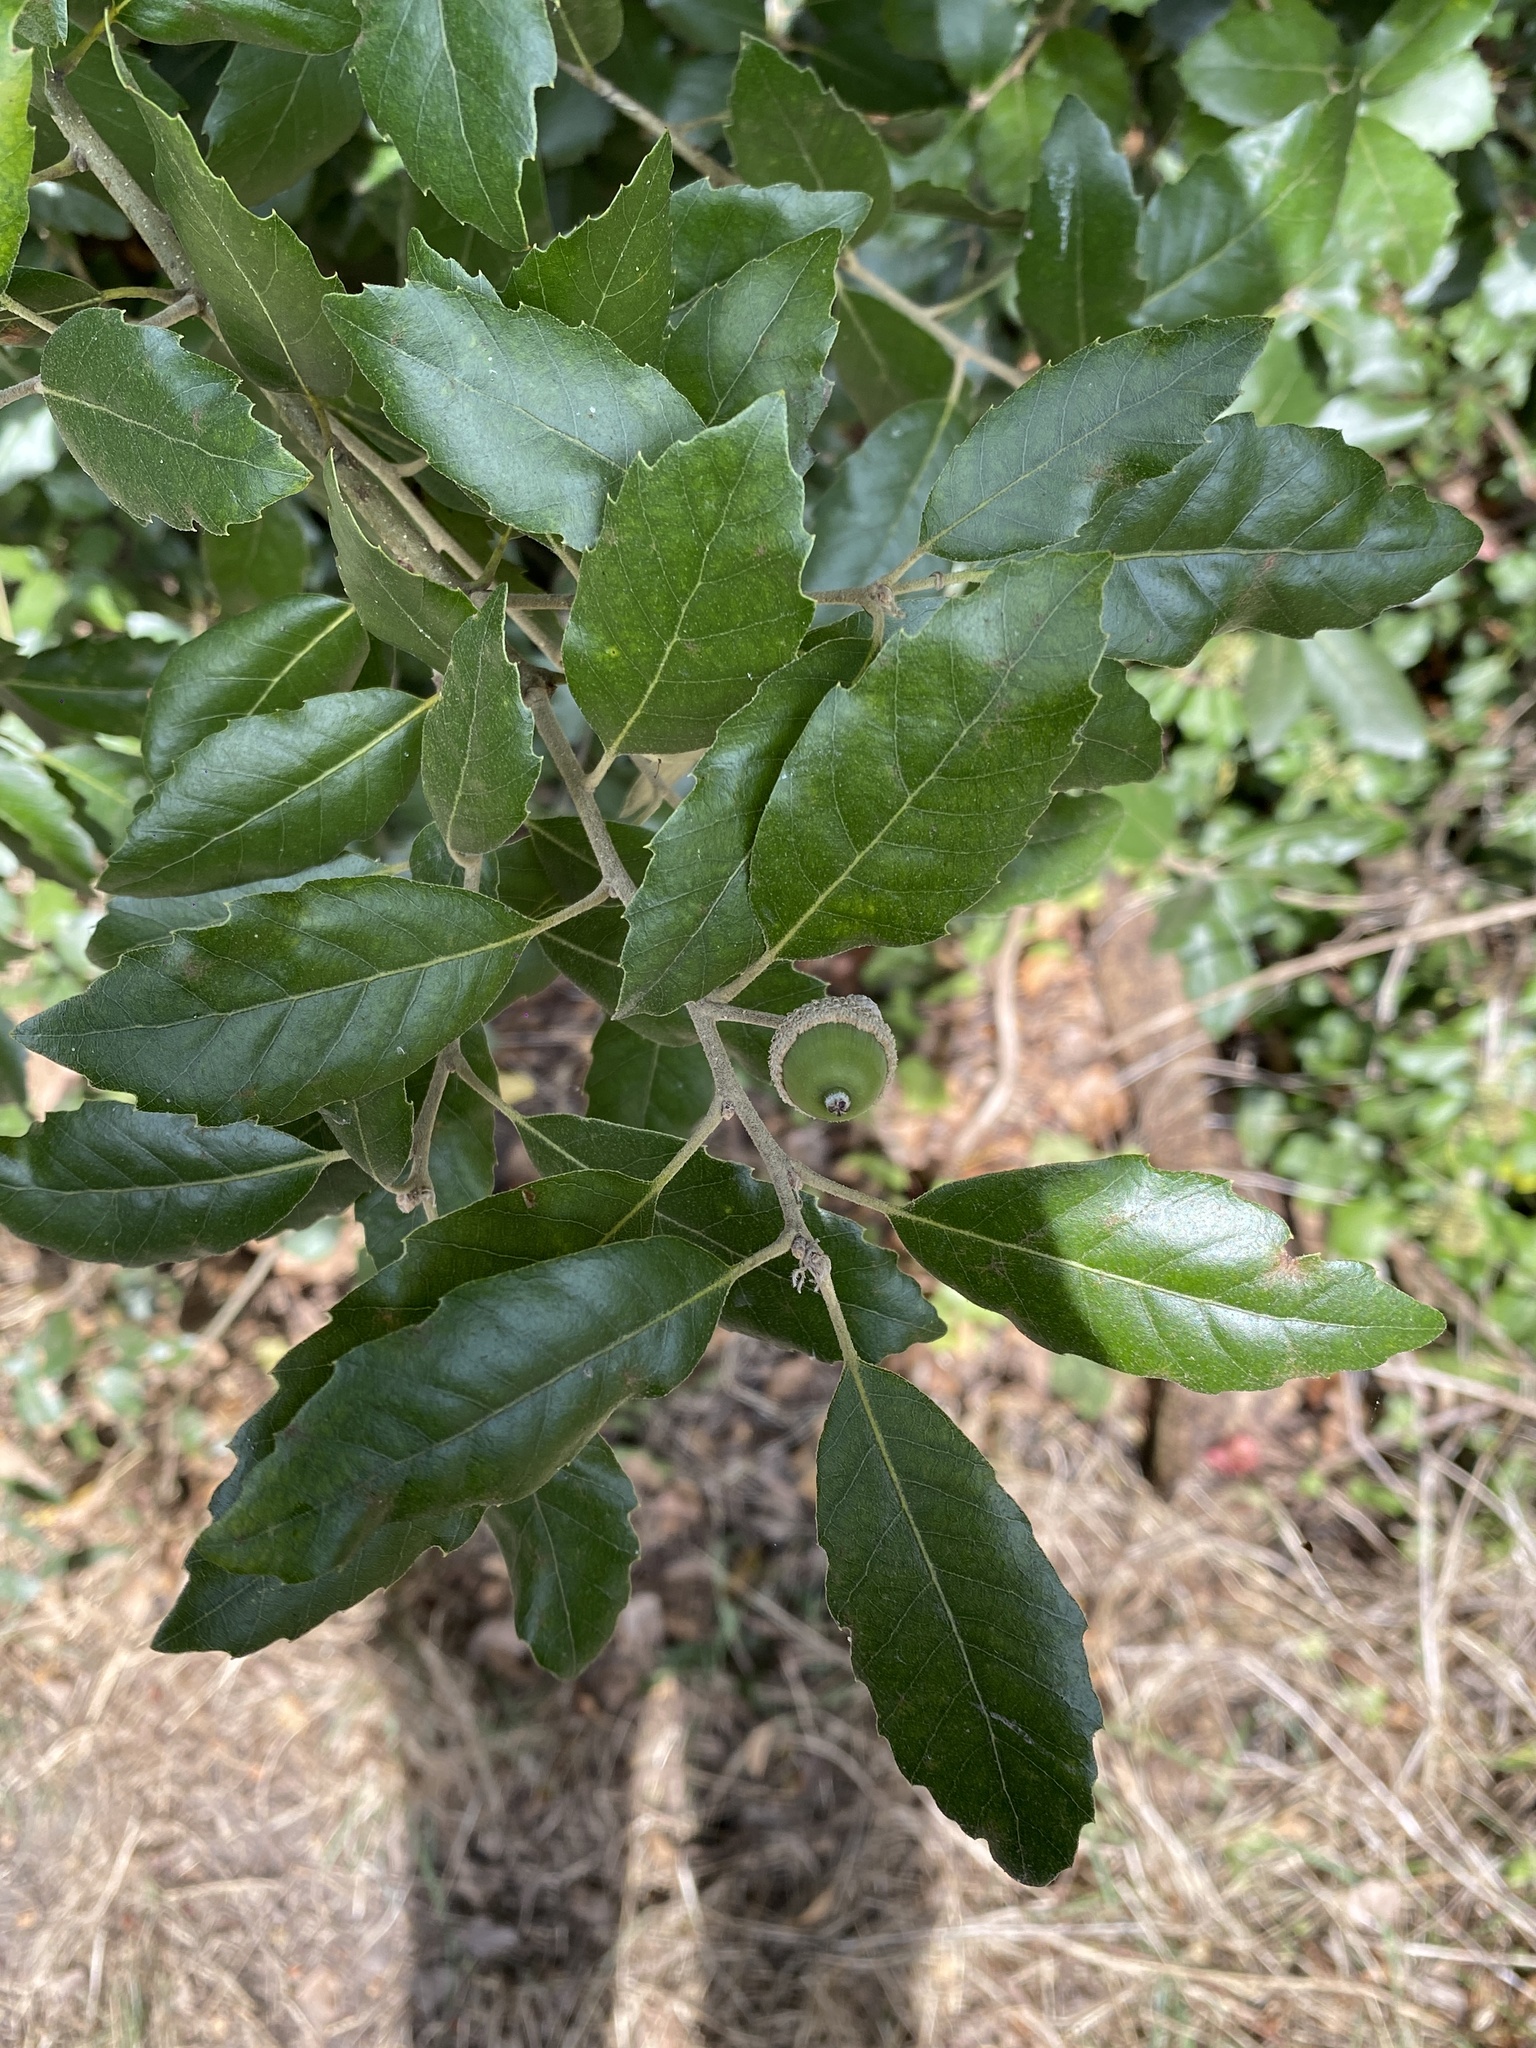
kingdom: Plantae
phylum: Tracheophyta
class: Magnoliopsida
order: Fagales
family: Fagaceae
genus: Quercus
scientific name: Quercus ilex
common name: Evergreen oak
